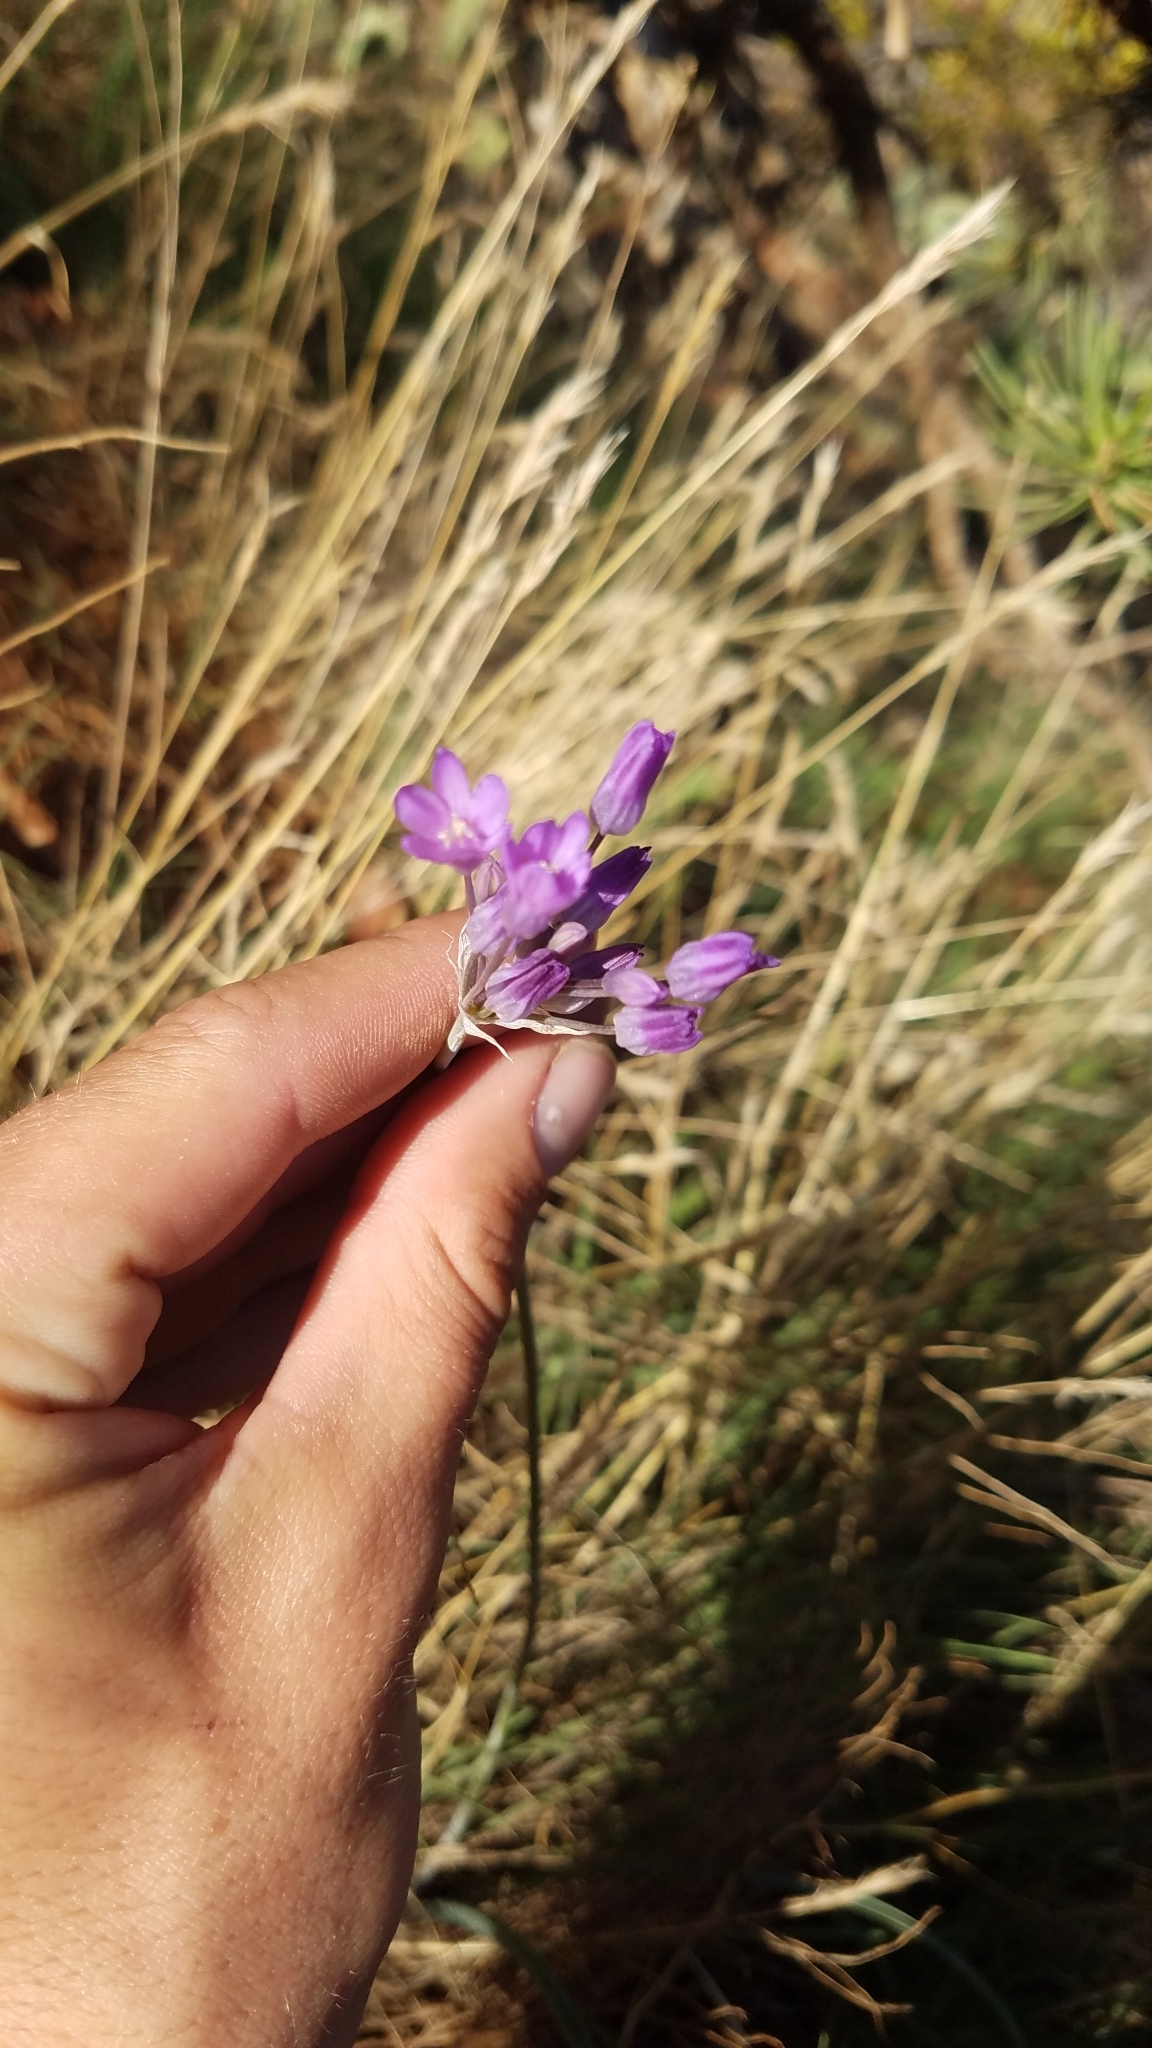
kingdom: Plantae
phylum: Tracheophyta
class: Liliopsida
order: Asparagales
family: Asparagaceae
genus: Dipterostemon
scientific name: Dipterostemon capitatus
